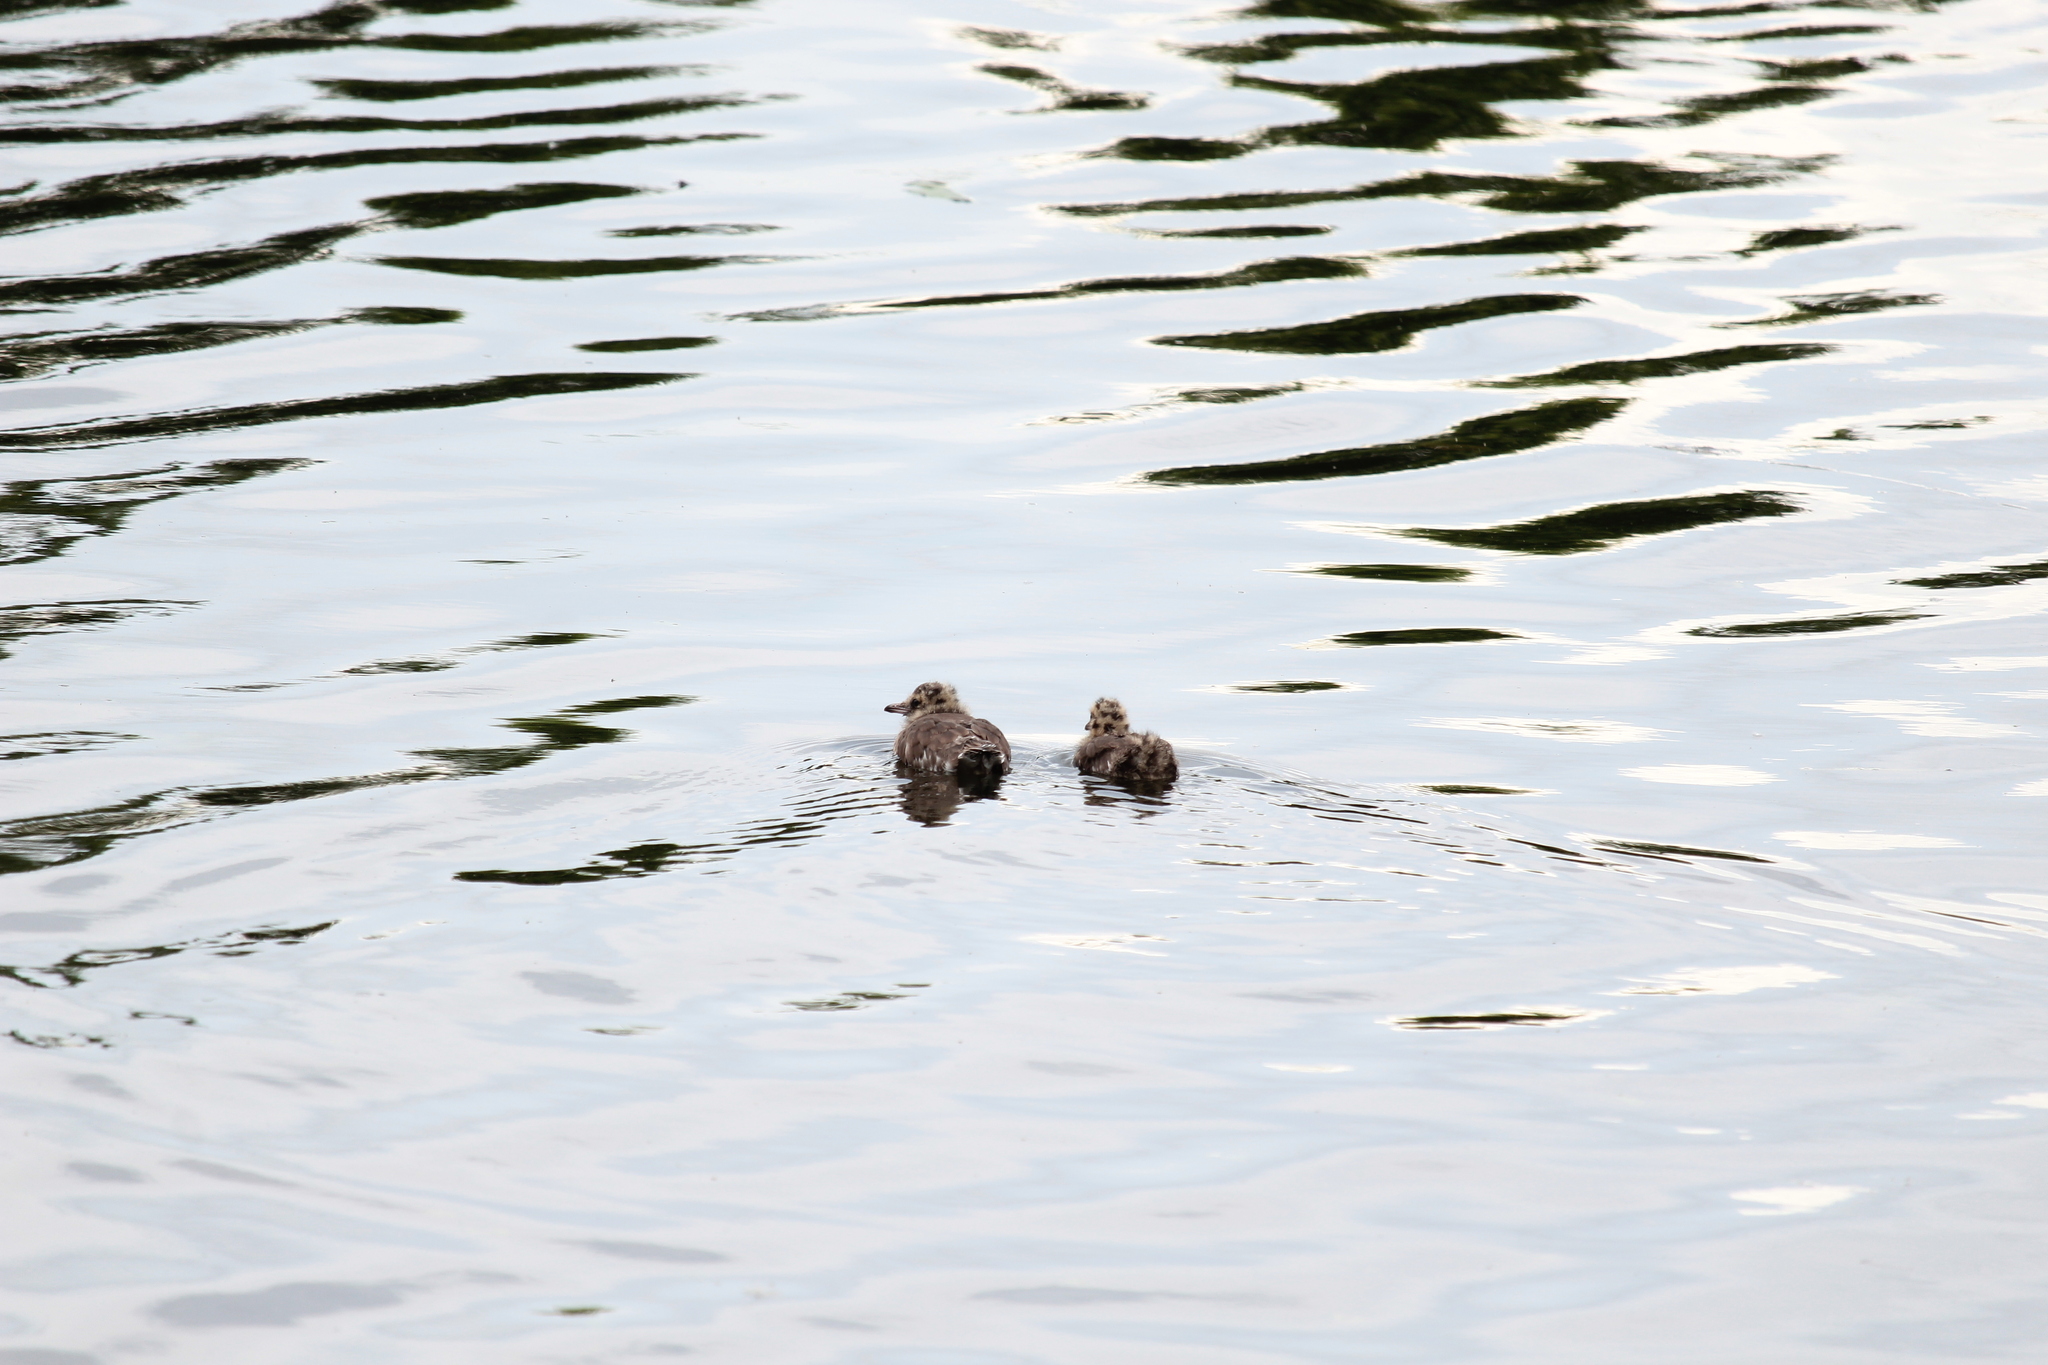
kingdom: Animalia
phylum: Chordata
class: Aves
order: Charadriiformes
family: Laridae
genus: Chroicocephalus
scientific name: Chroicocephalus ridibundus
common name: Black-headed gull
